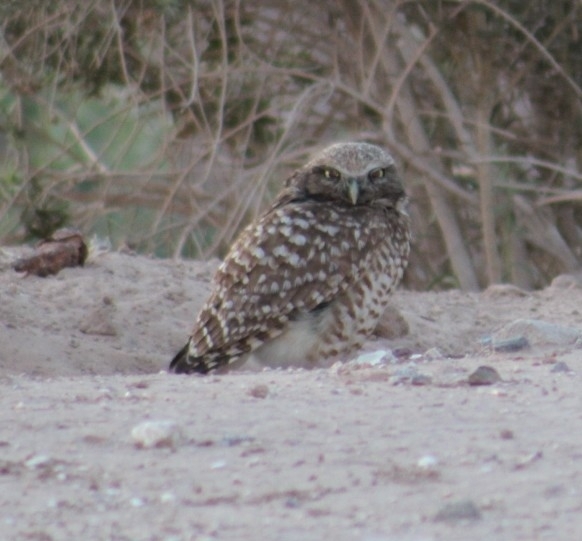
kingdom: Animalia
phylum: Chordata
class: Aves
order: Strigiformes
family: Strigidae
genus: Athene
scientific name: Athene cunicularia
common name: Burrowing owl
